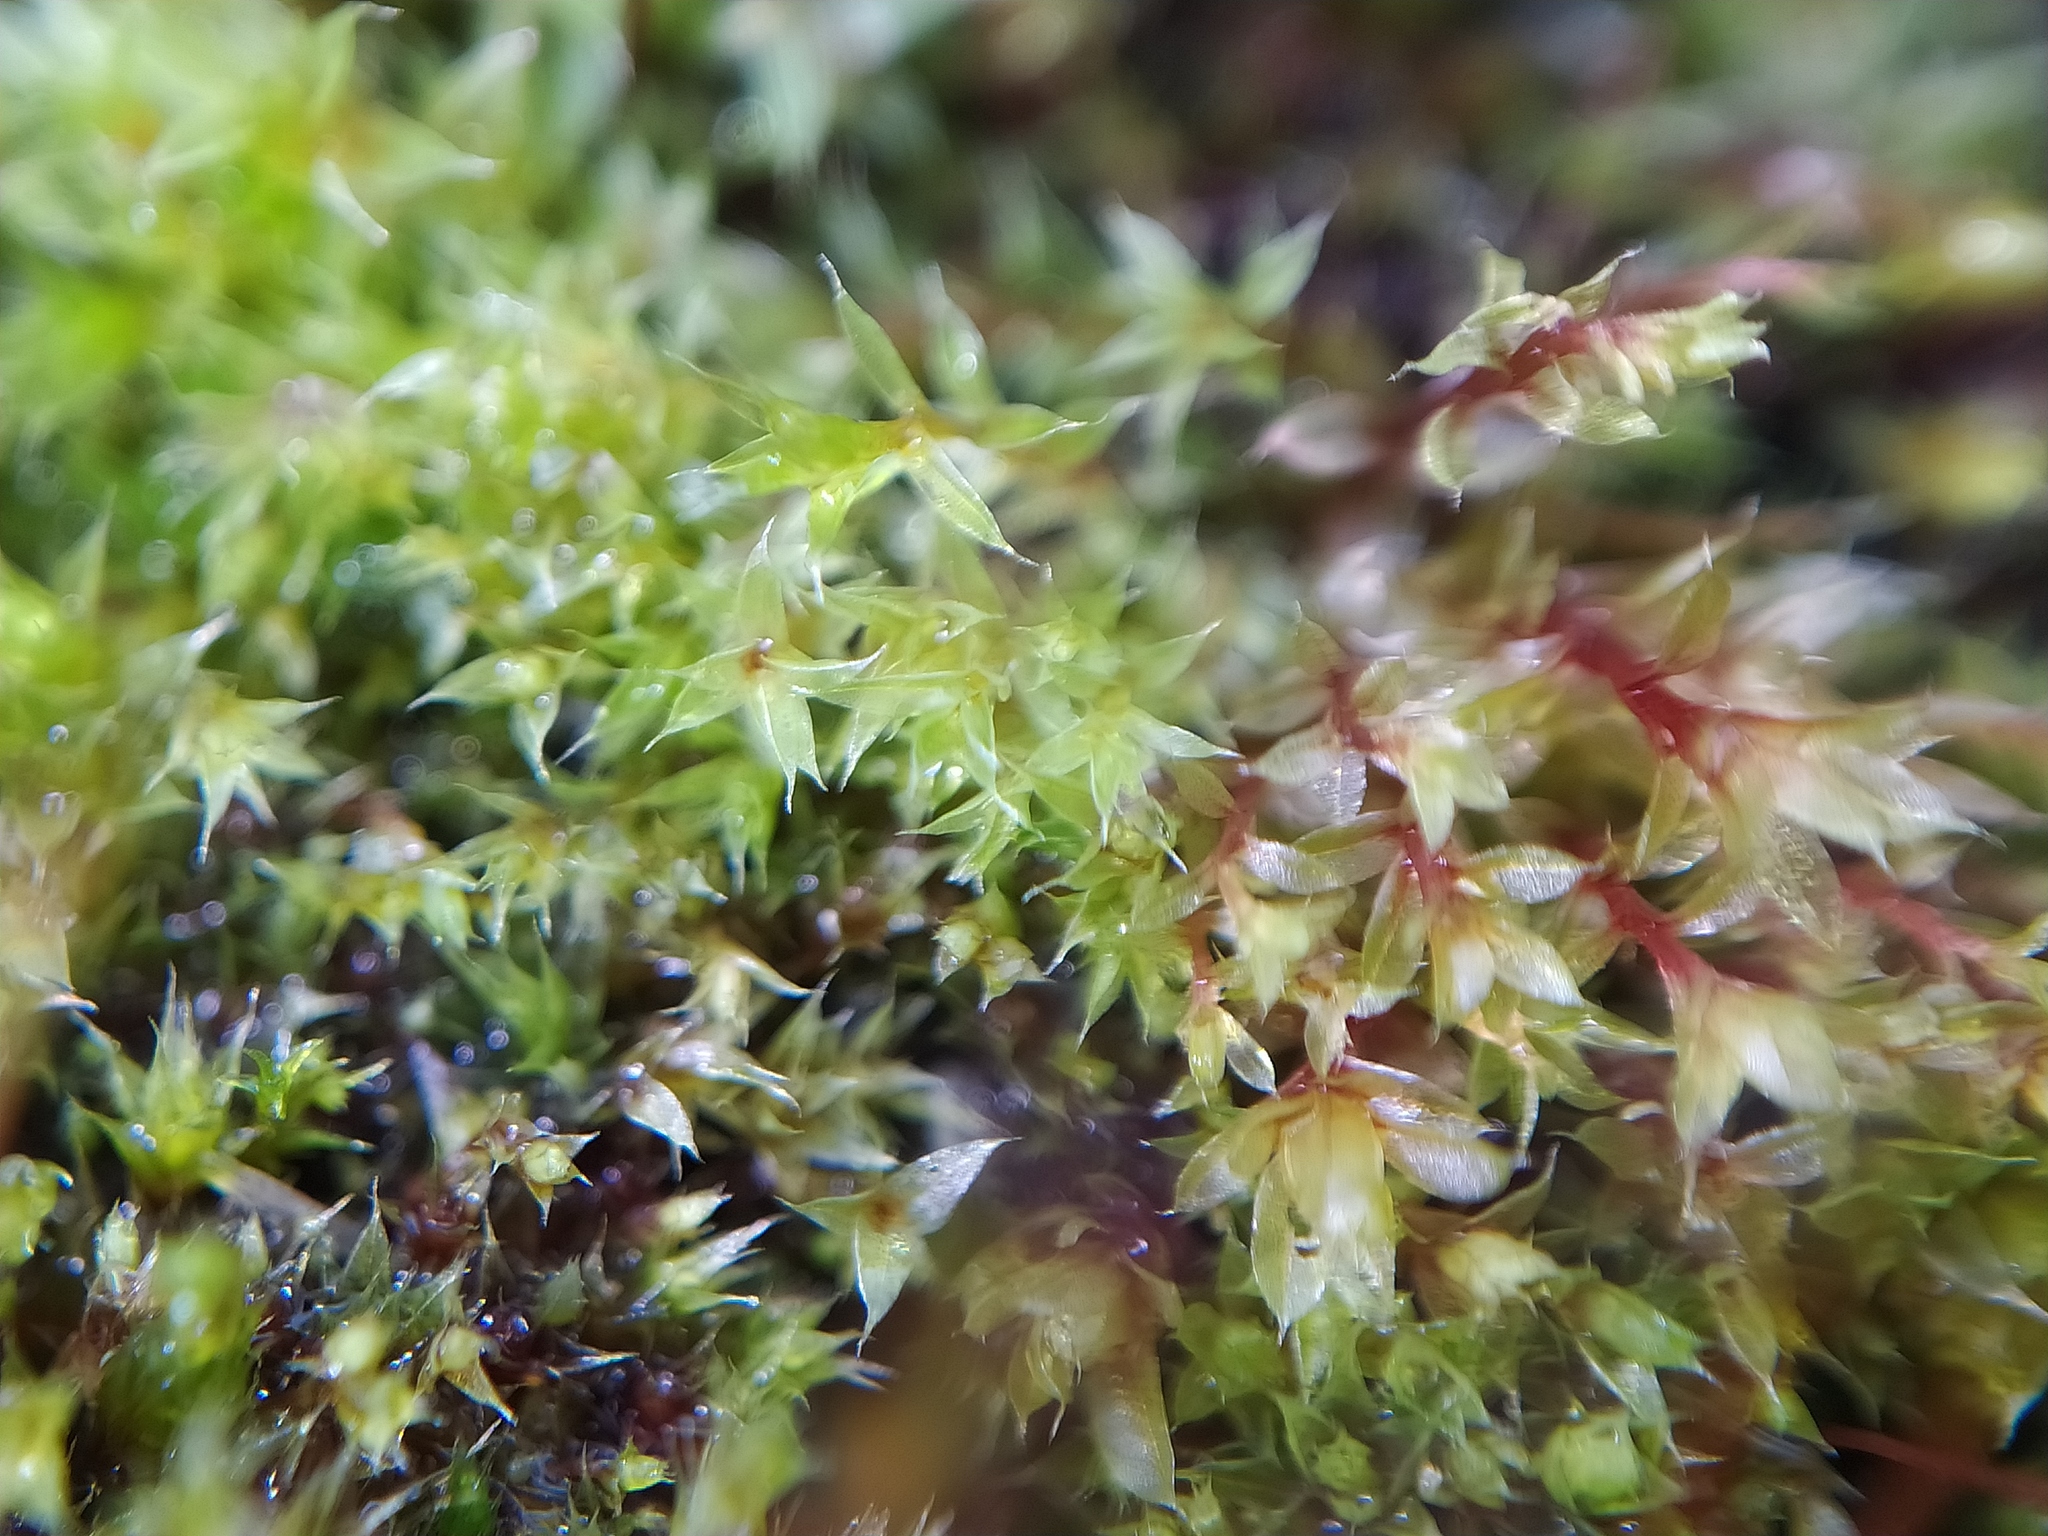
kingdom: Plantae
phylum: Bryophyta
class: Bryopsida
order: Bryales
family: Bryaceae
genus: Rosulabryum
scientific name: Rosulabryum rubens
